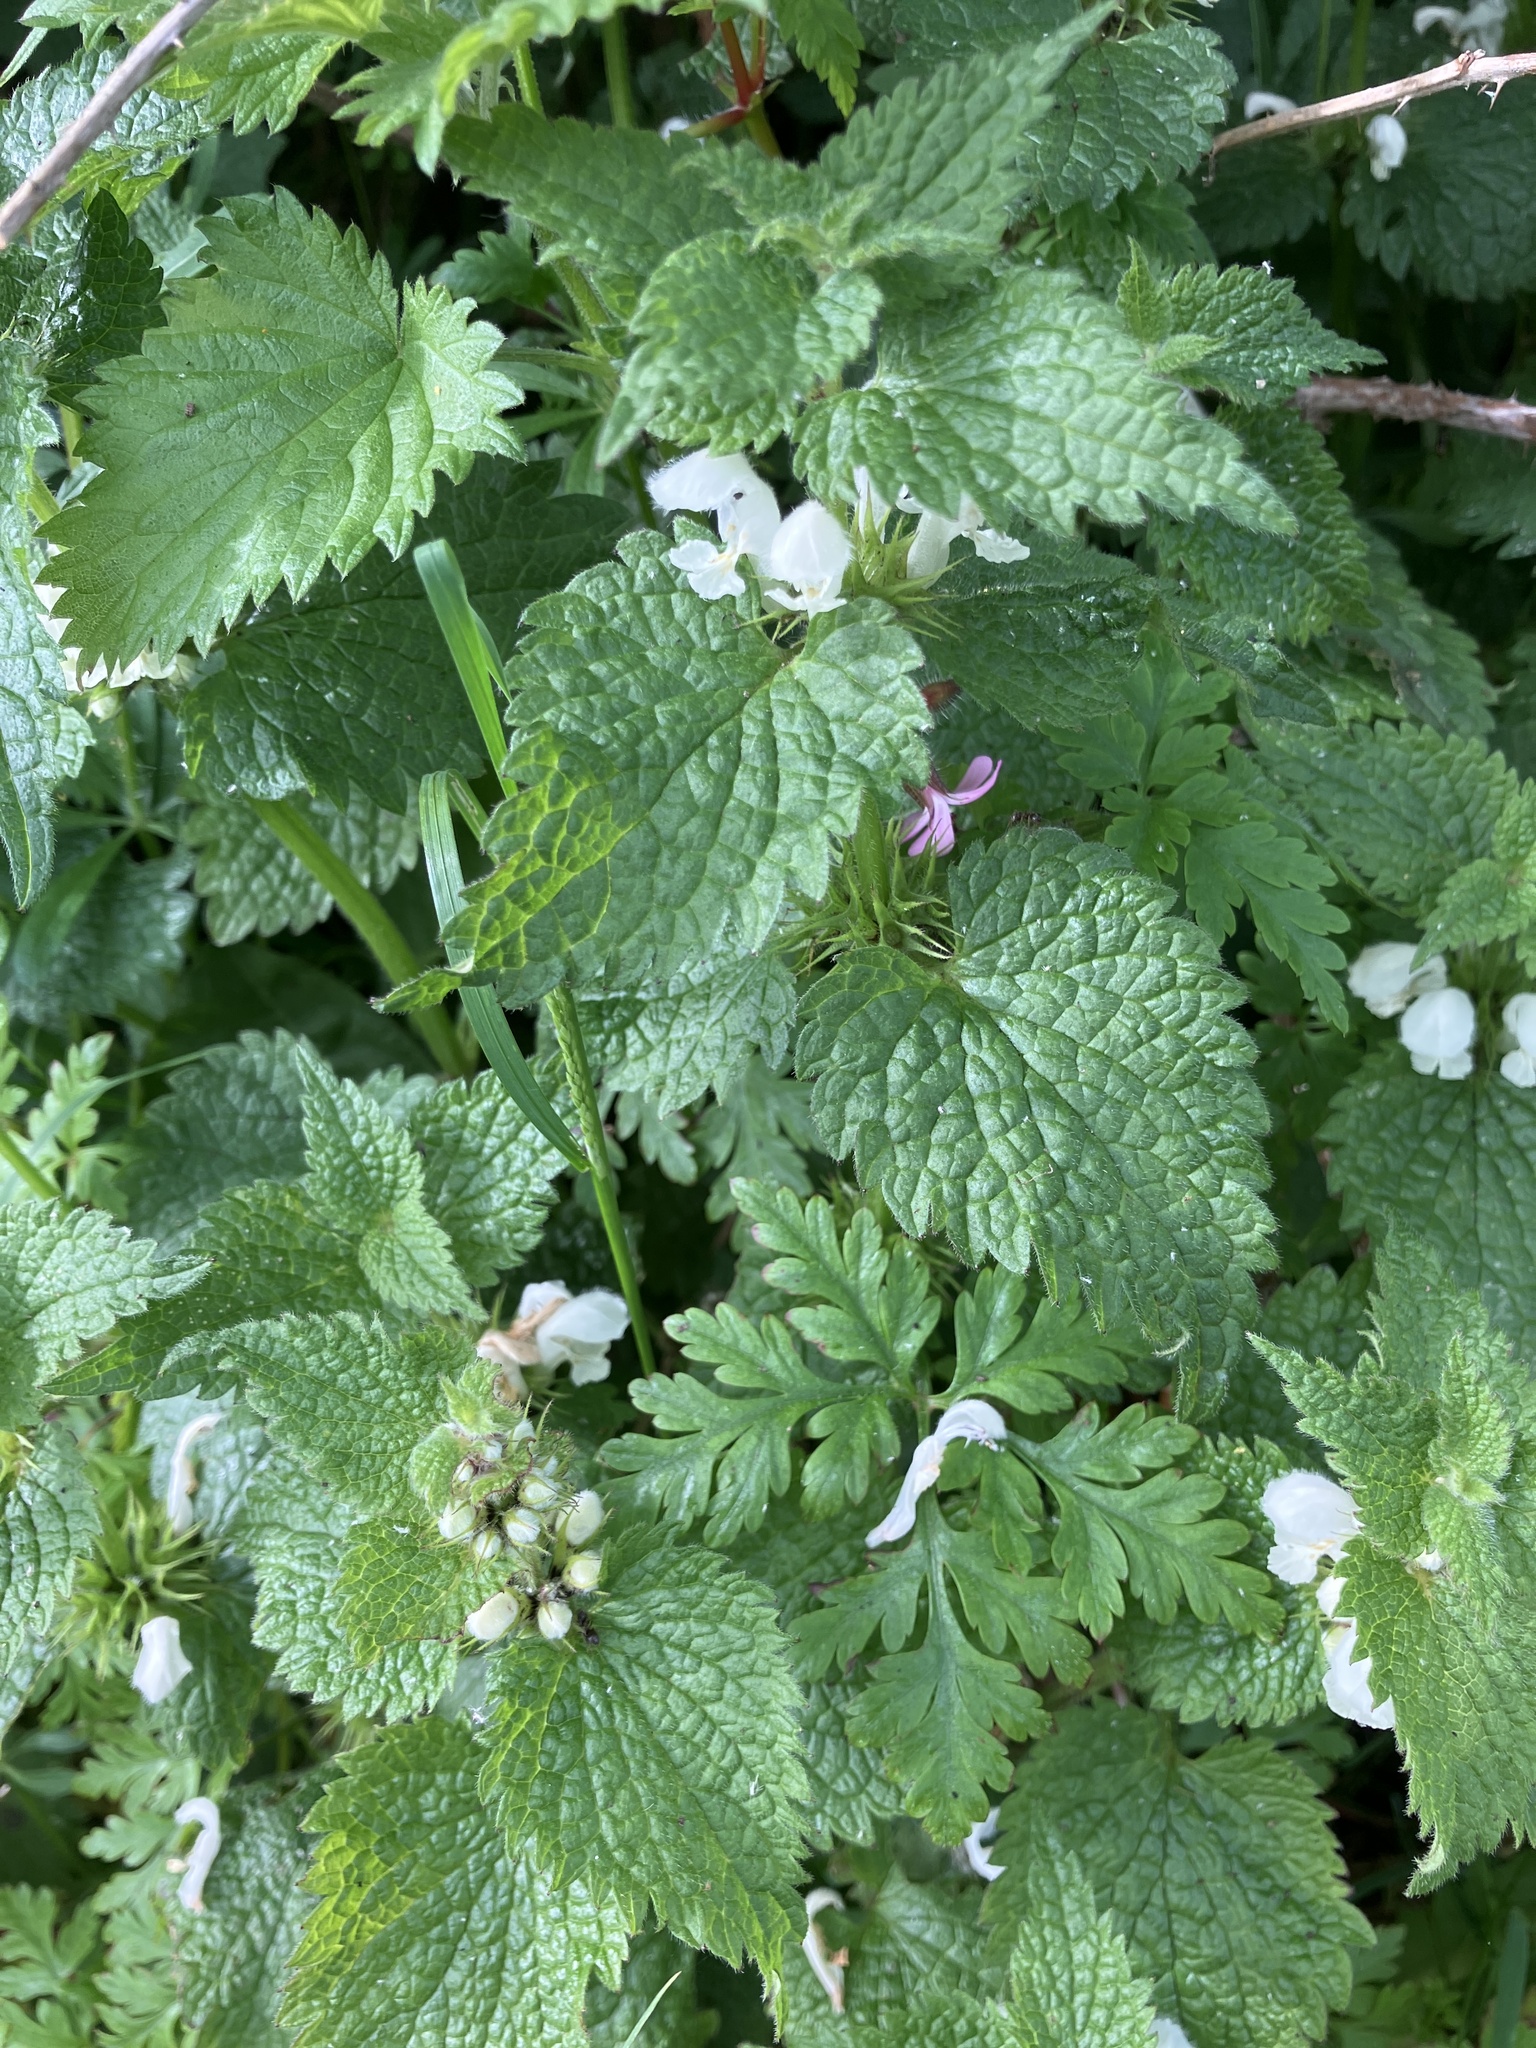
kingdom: Plantae
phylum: Tracheophyta
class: Magnoliopsida
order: Lamiales
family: Lamiaceae
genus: Lamium
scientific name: Lamium album
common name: White dead-nettle
